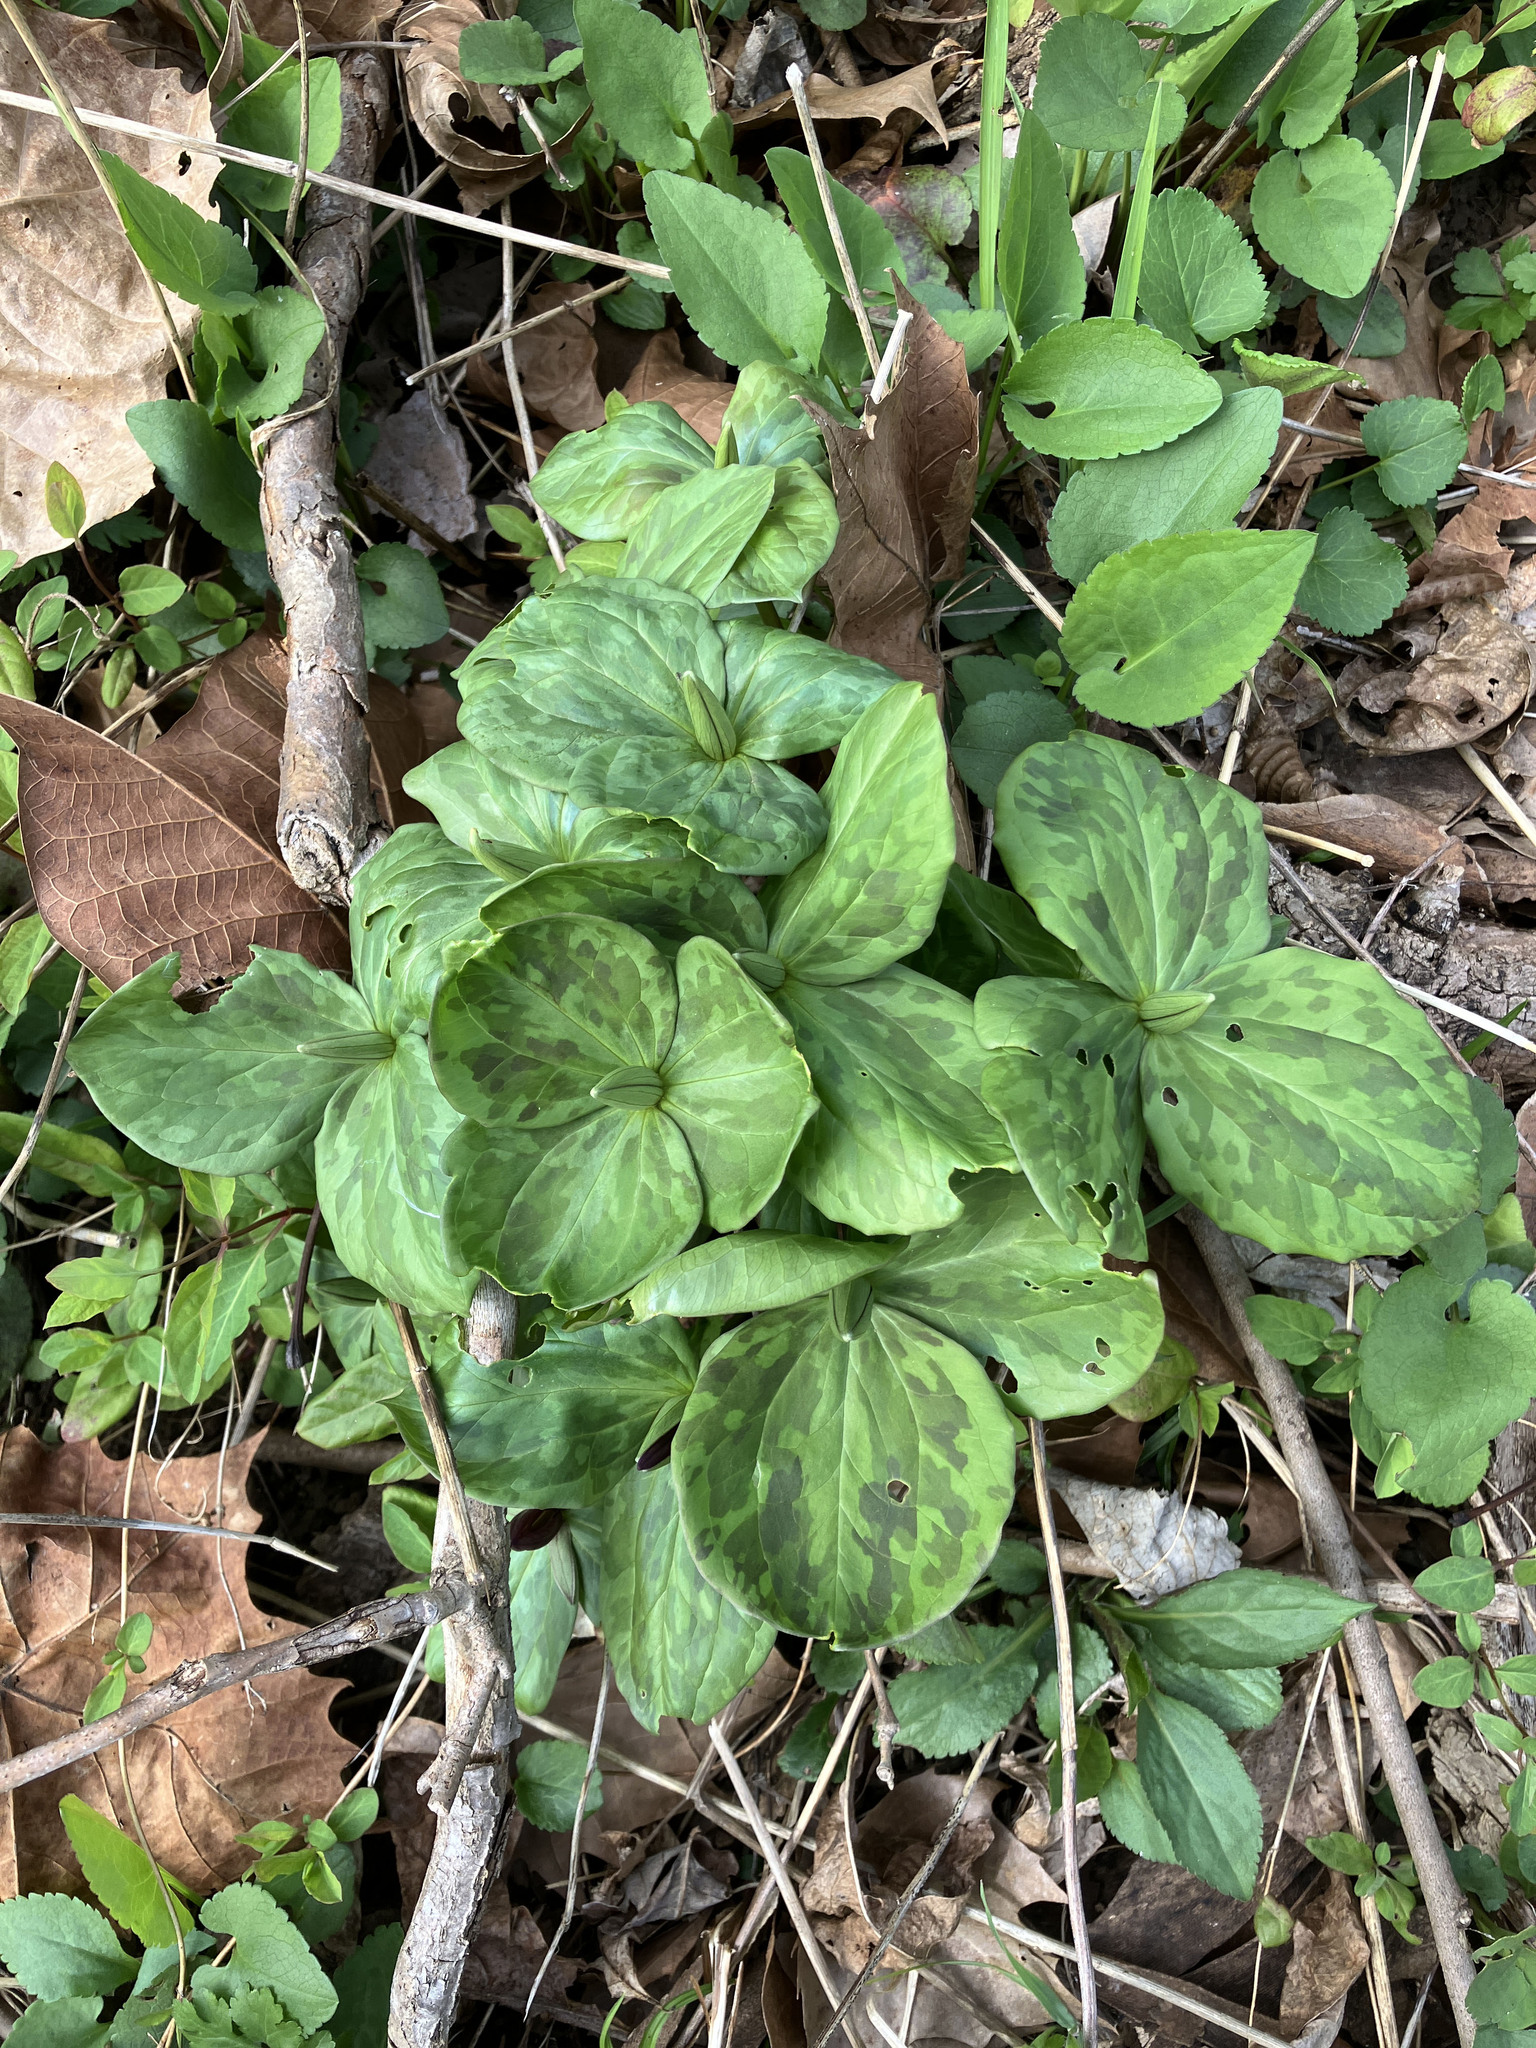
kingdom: Plantae
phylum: Tracheophyta
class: Liliopsida
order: Liliales
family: Melanthiaceae
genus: Trillium
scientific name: Trillium sessile
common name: Sessile trillium
